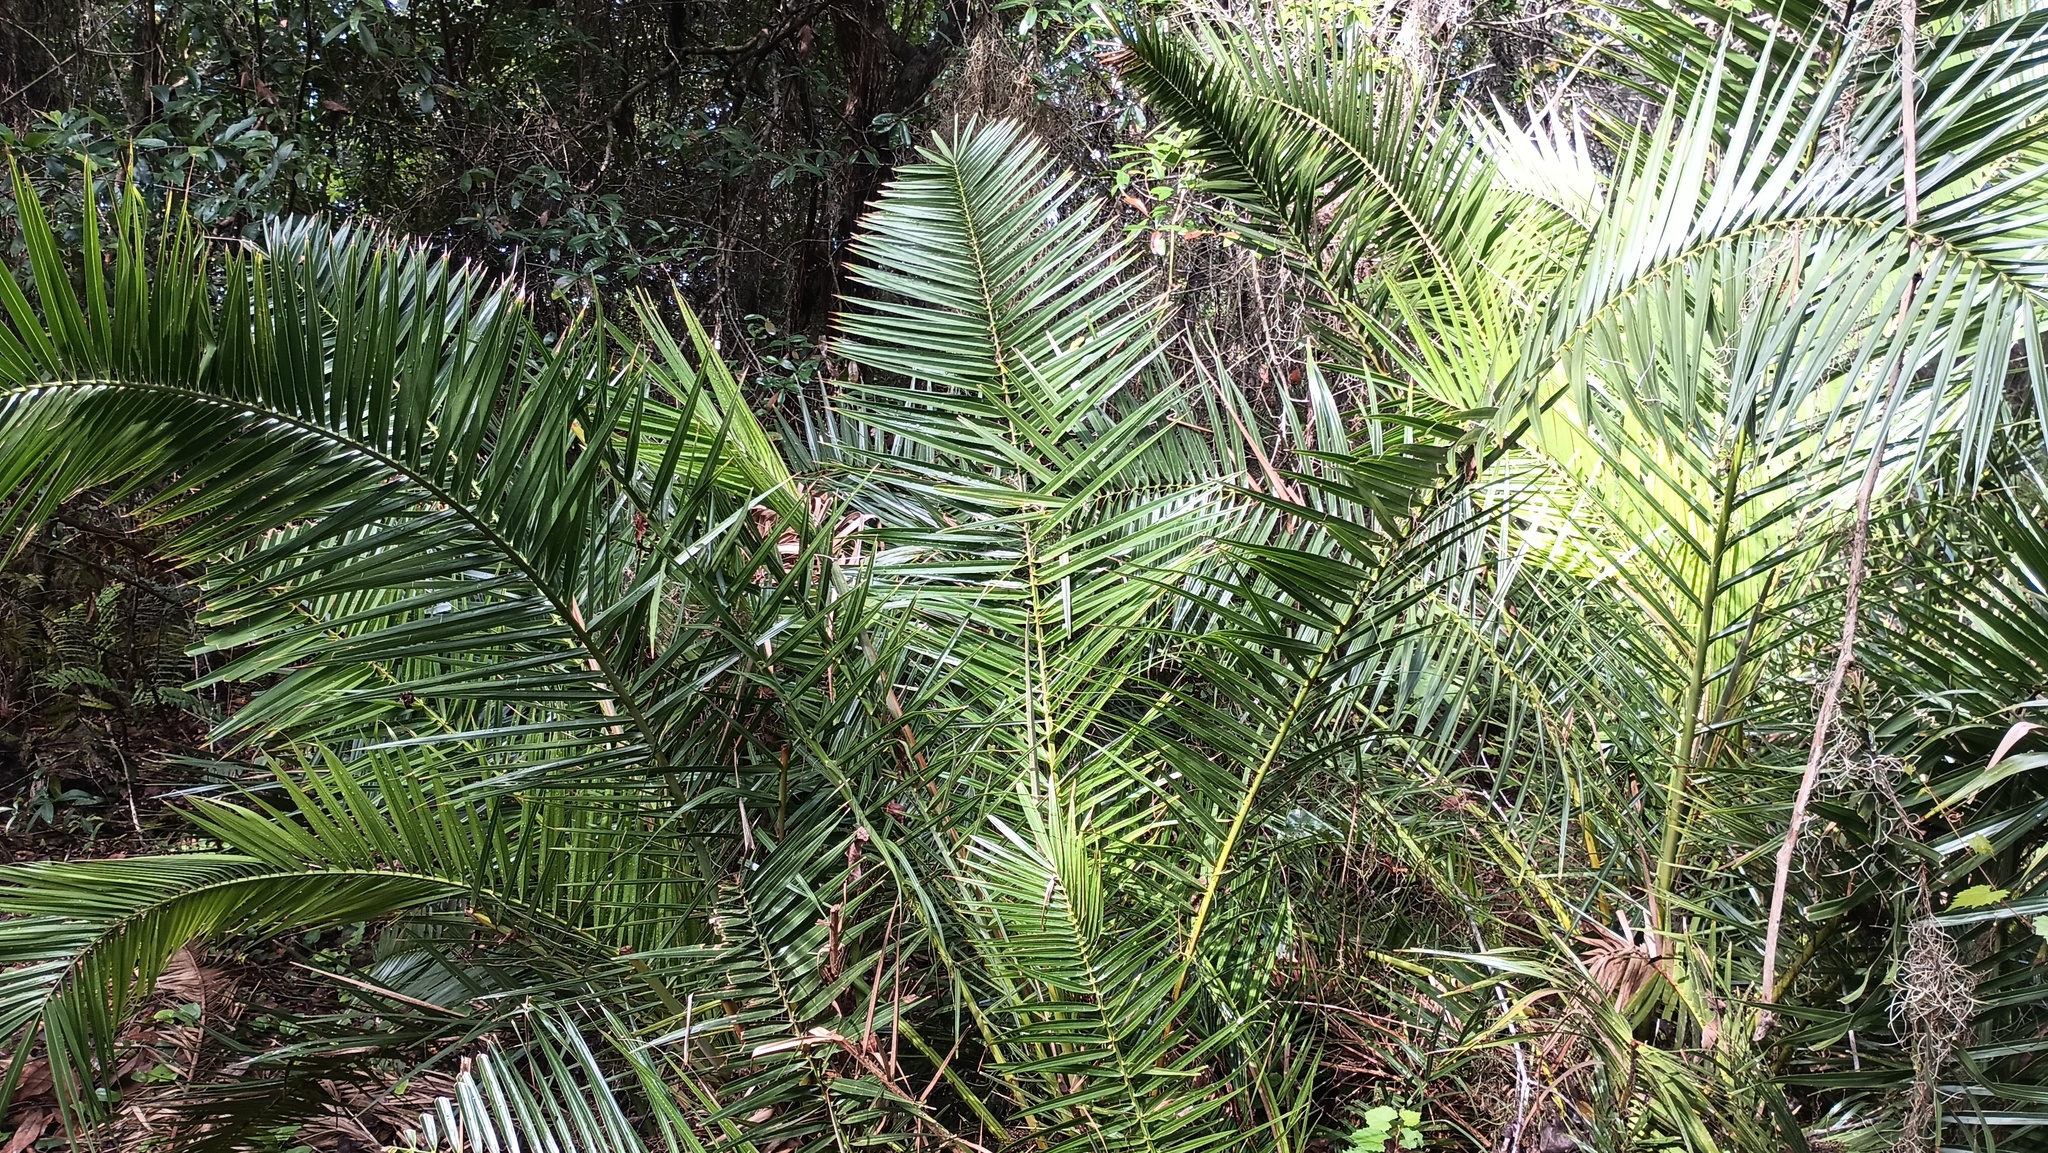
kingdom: Plantae
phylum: Tracheophyta
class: Liliopsida
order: Arecales
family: Arecaceae
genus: Phoenix
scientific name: Phoenix reclinata
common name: Senegal date palm
